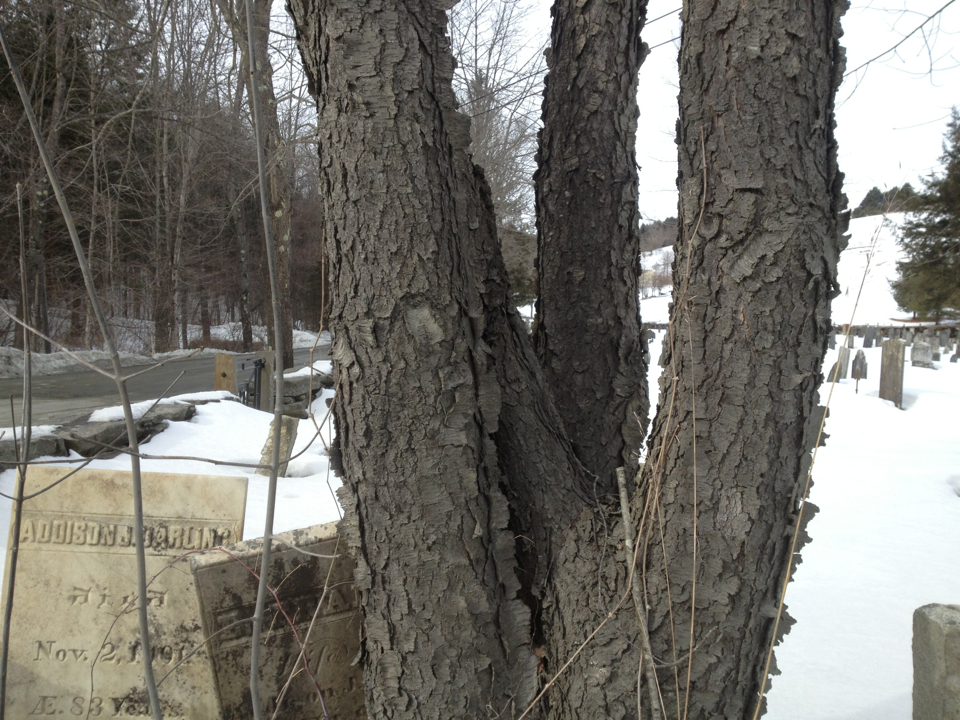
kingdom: Plantae
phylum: Tracheophyta
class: Magnoliopsida
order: Rosales
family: Rosaceae
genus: Prunus
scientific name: Prunus serotina
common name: Black cherry
